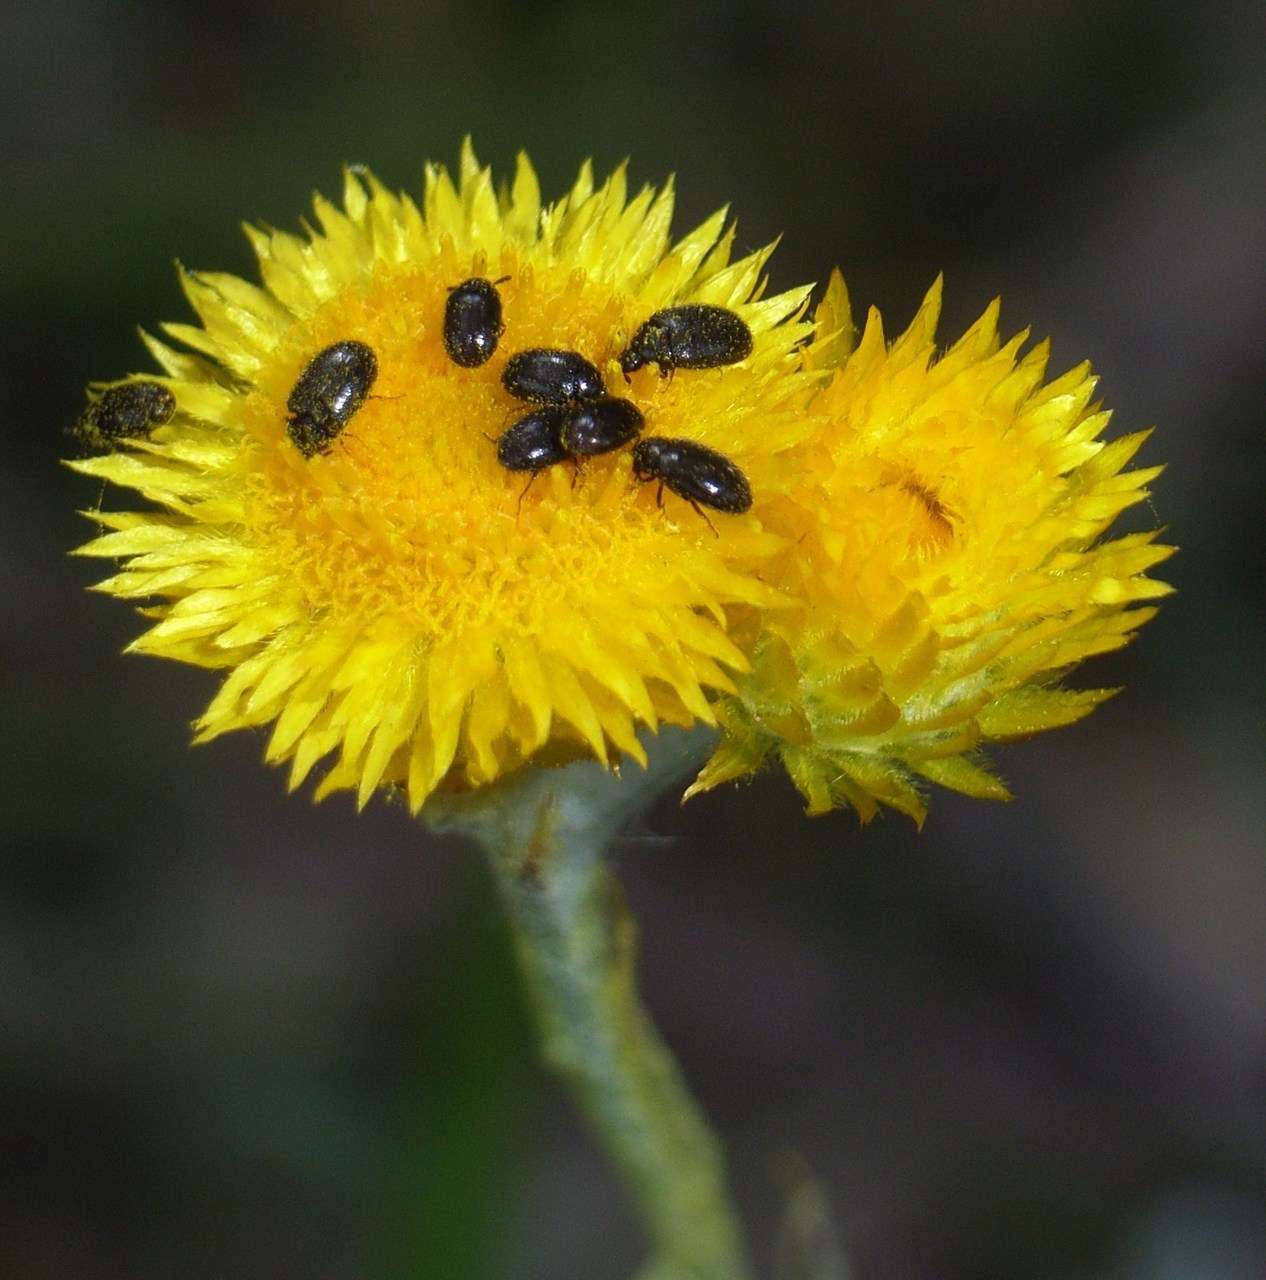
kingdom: Plantae
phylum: Tracheophyta
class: Magnoliopsida
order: Asterales
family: Asteraceae
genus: Chrysocephalum
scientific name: Chrysocephalum apiculatum
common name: Common everlasting
